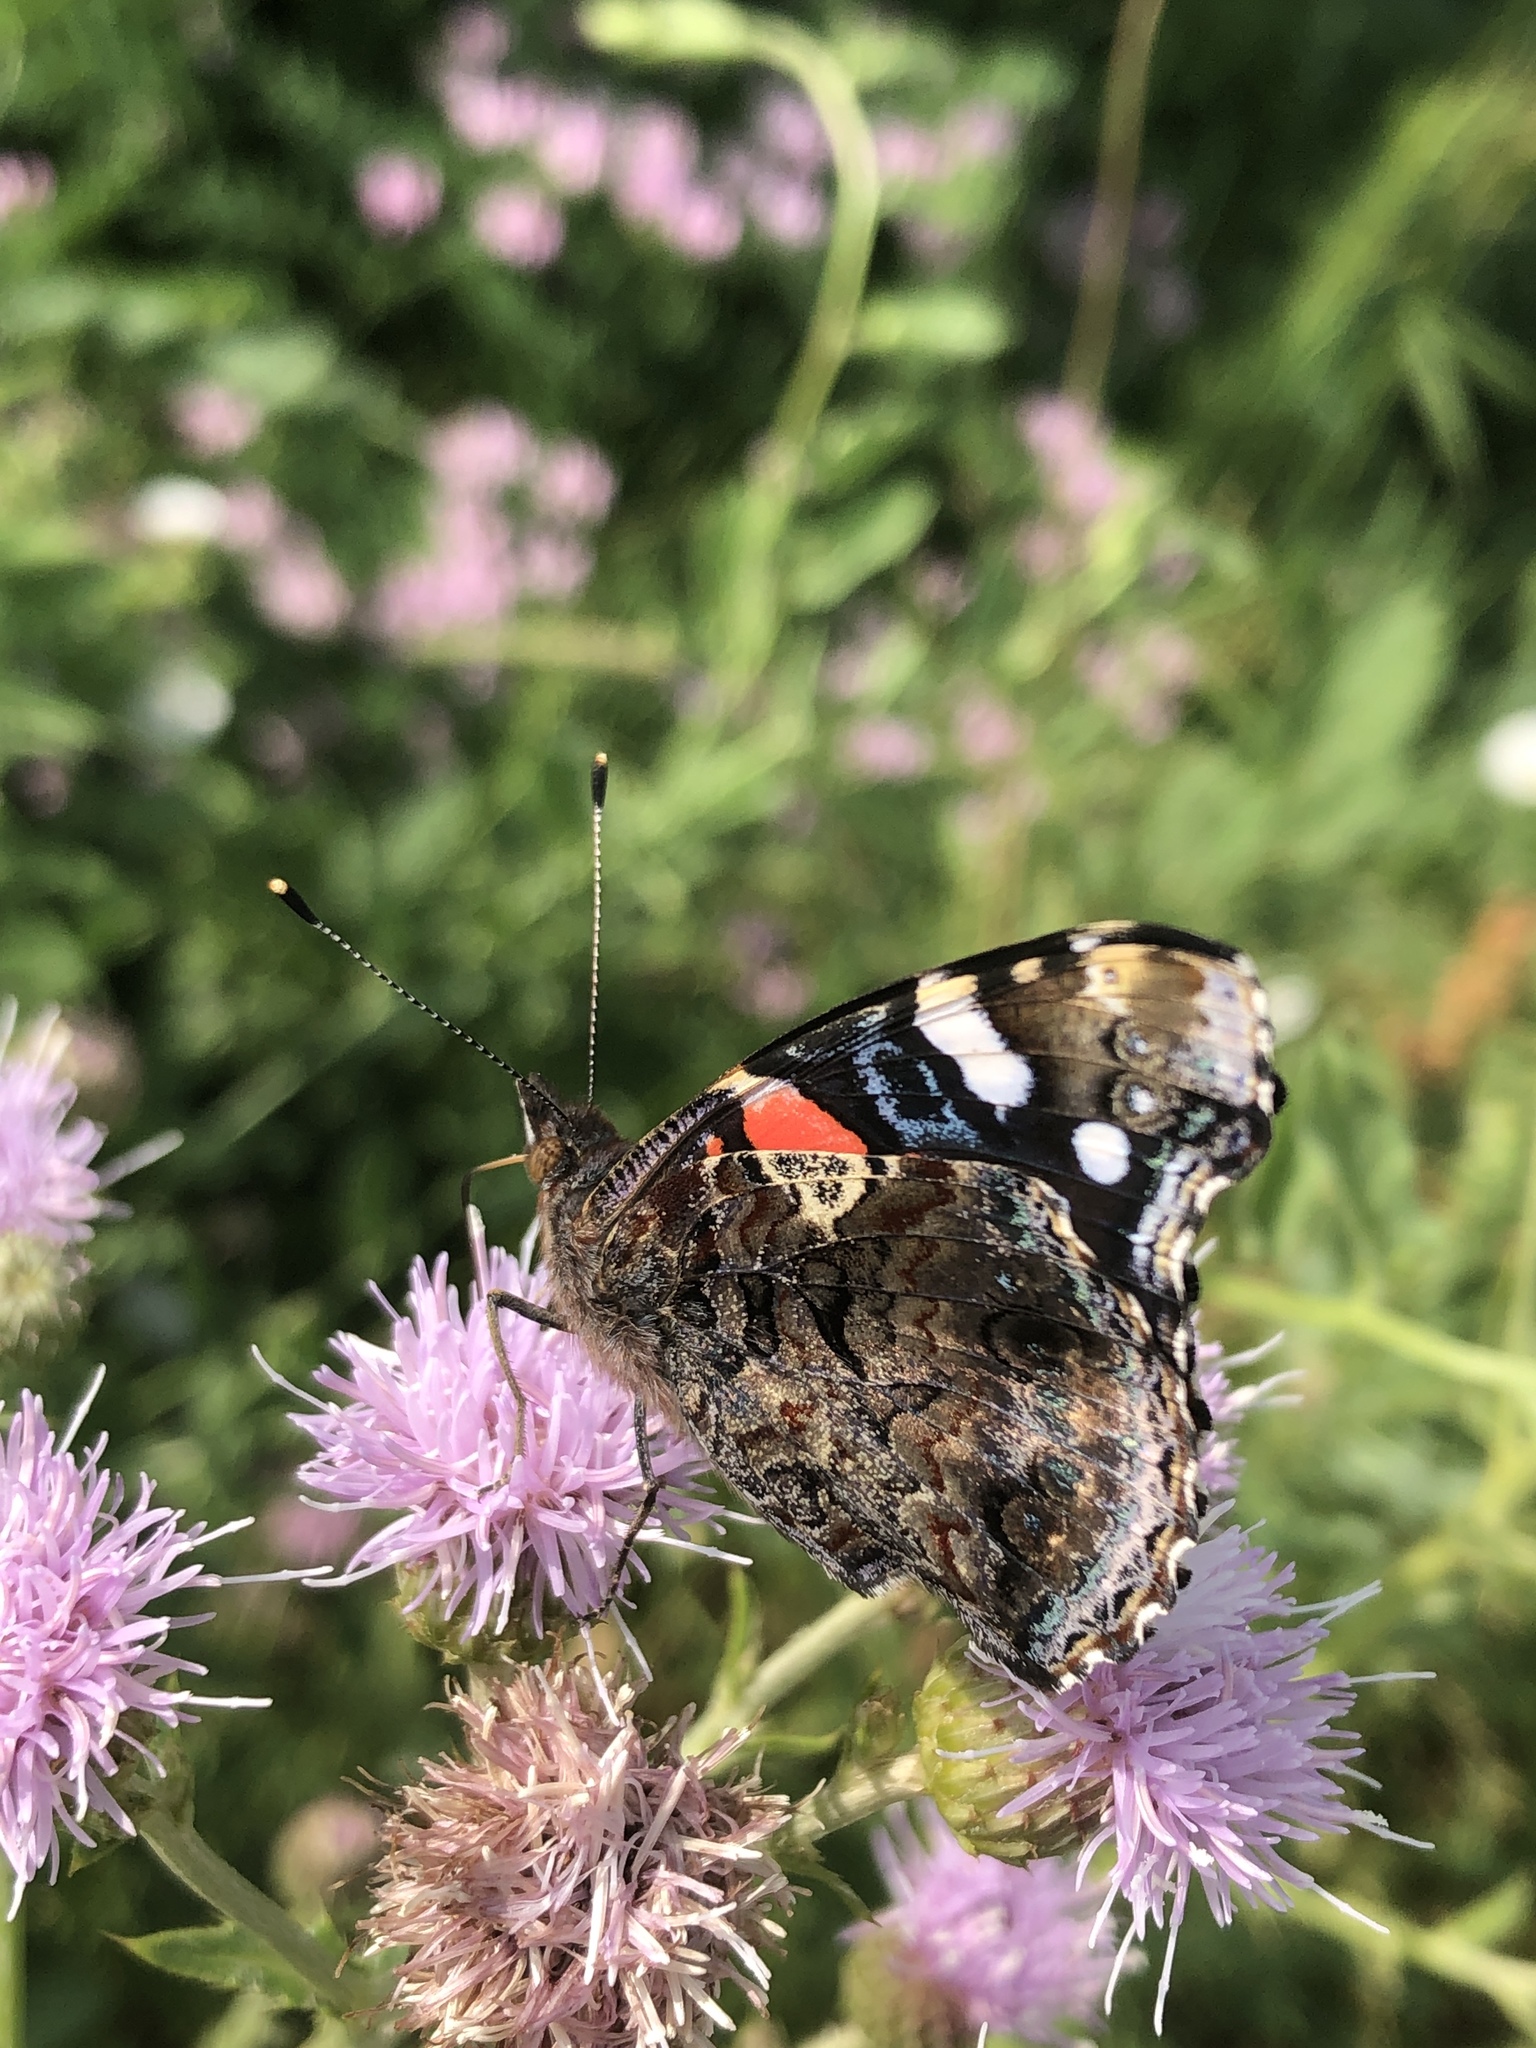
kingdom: Animalia
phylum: Arthropoda
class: Insecta
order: Lepidoptera
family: Nymphalidae
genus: Vanessa
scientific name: Vanessa atalanta
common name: Red admiral
